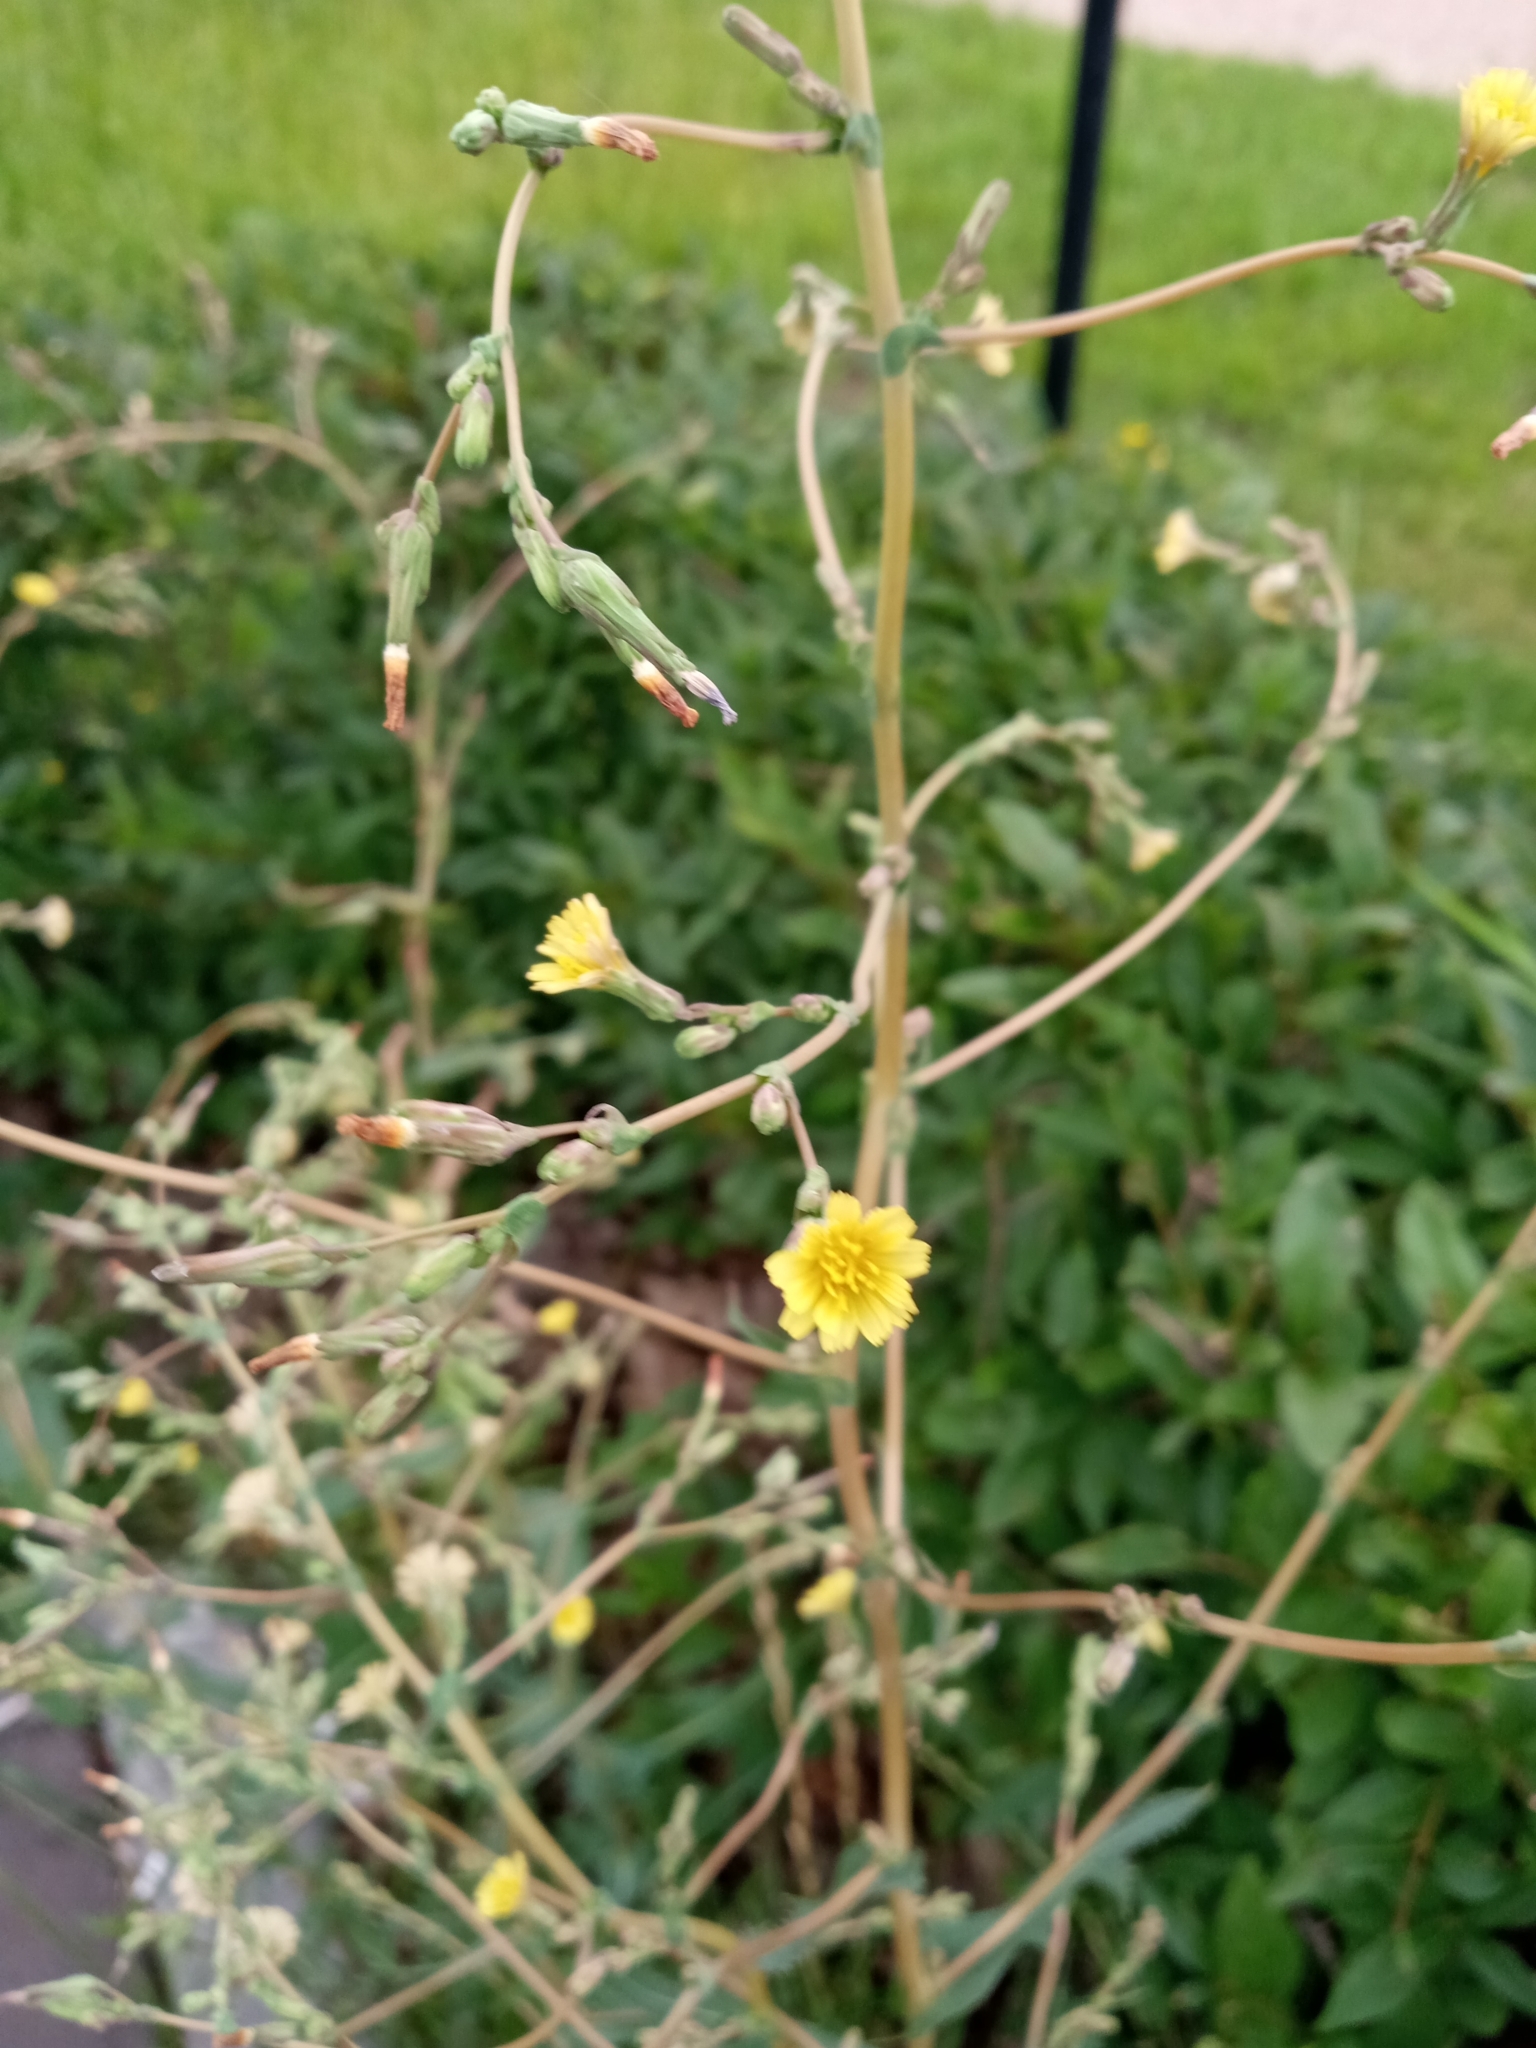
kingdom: Plantae
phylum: Tracheophyta
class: Magnoliopsida
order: Asterales
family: Asteraceae
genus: Lactuca
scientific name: Lactuca serriola
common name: Prickly lettuce
